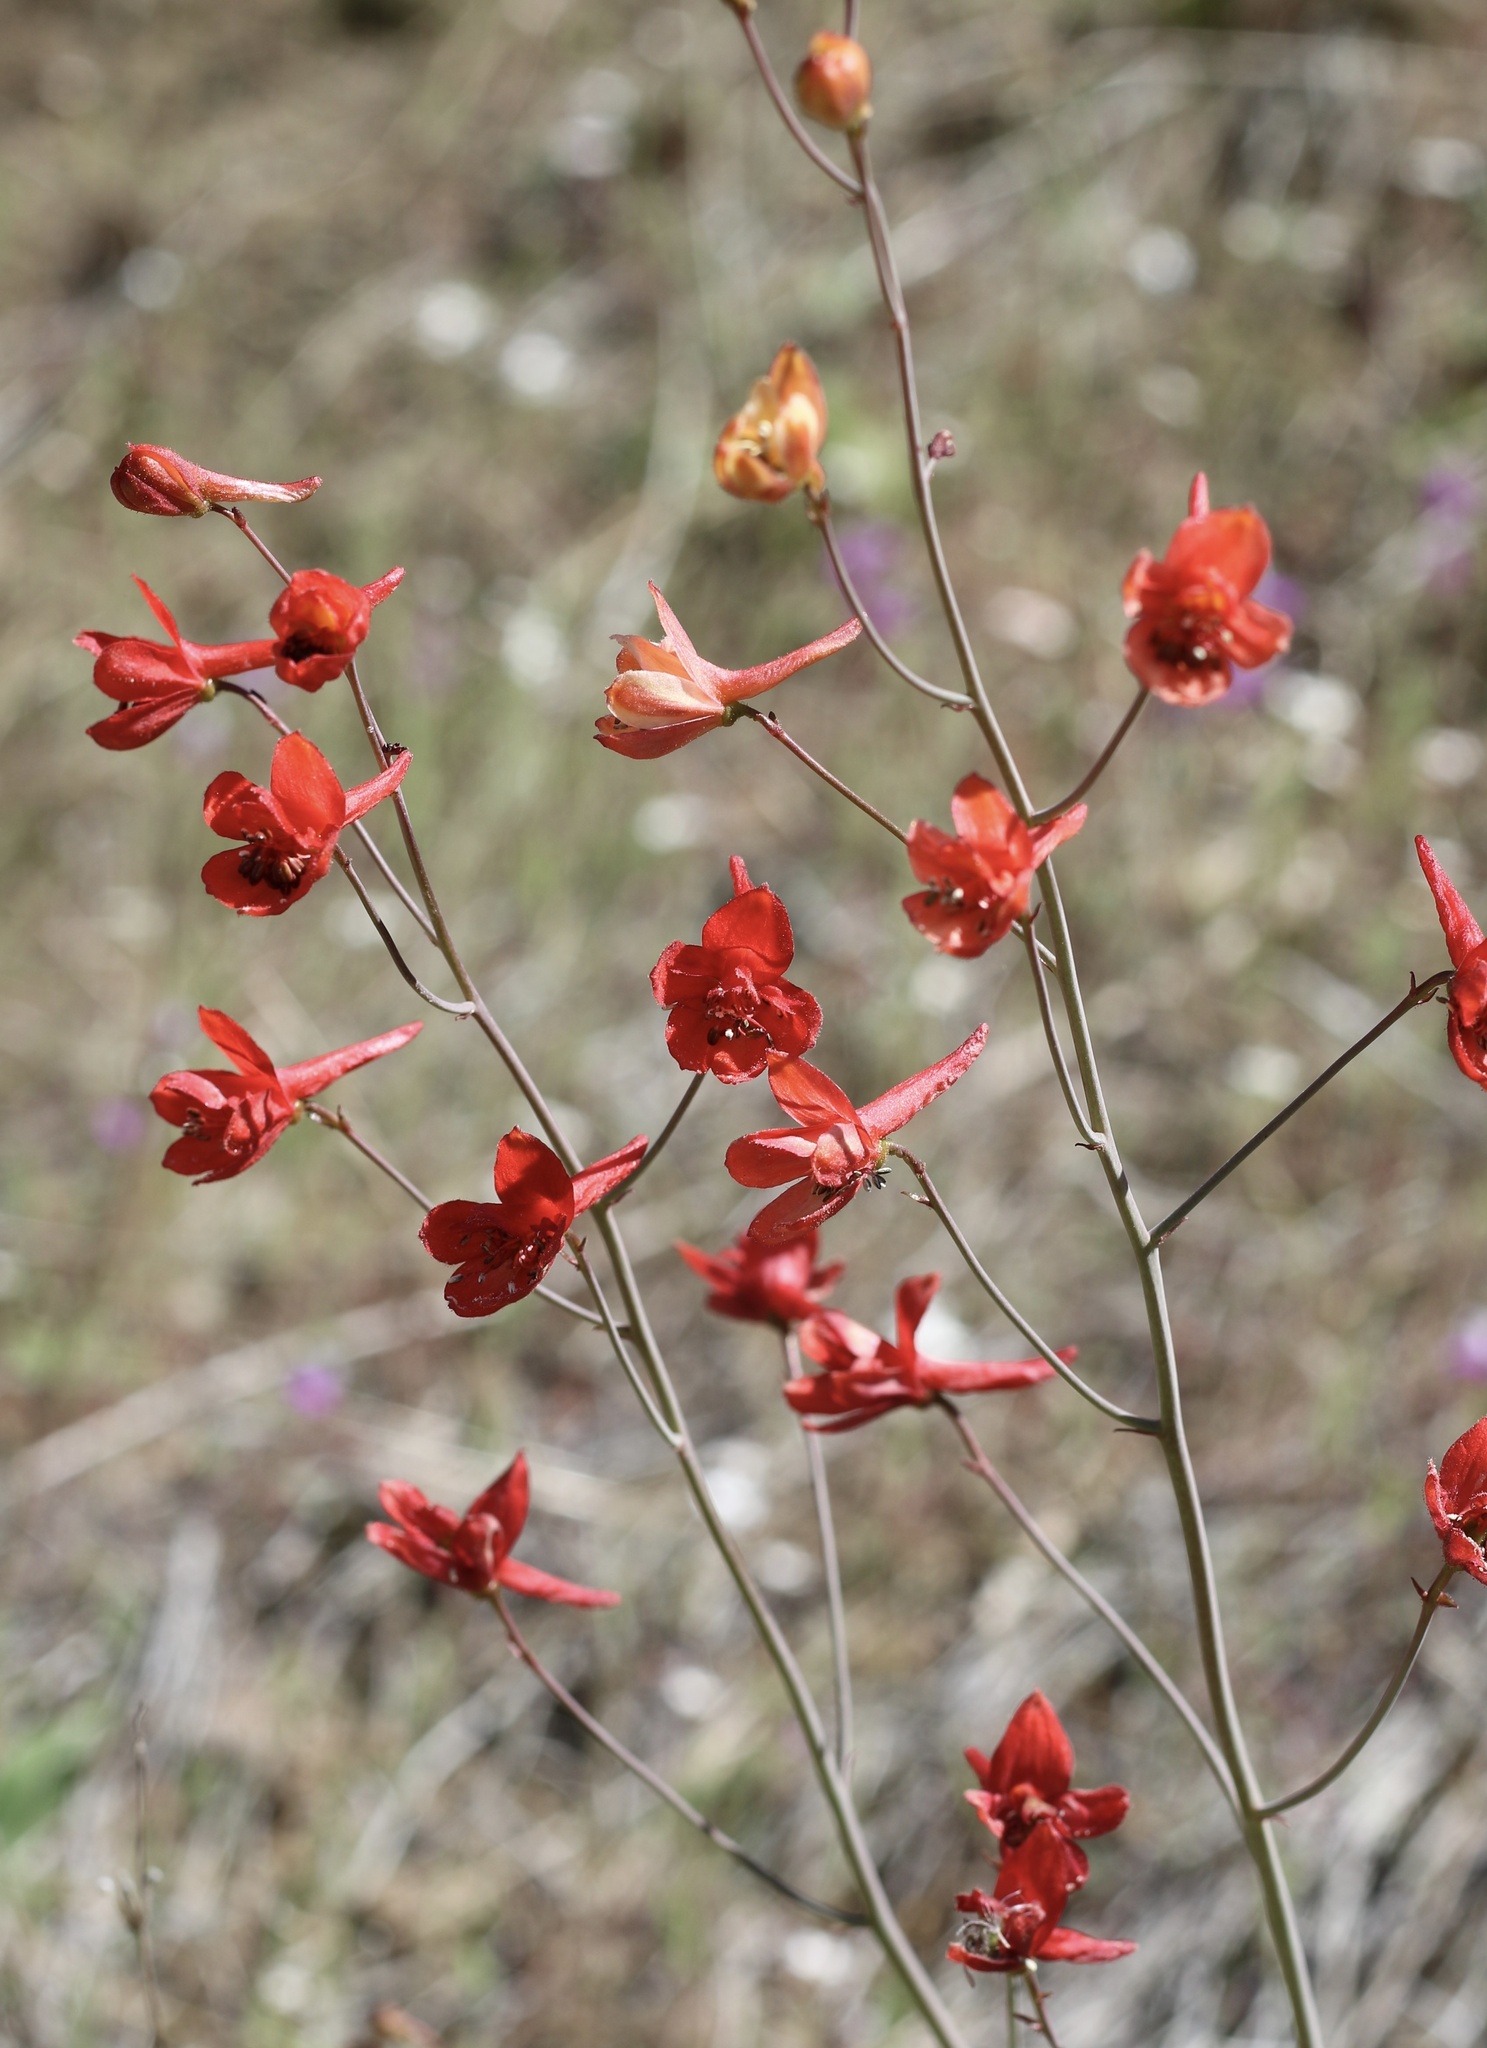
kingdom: Plantae
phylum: Tracheophyta
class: Magnoliopsida
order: Ranunculales
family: Ranunculaceae
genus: Delphinium
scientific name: Delphinium nudicaule
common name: Red larkspur
